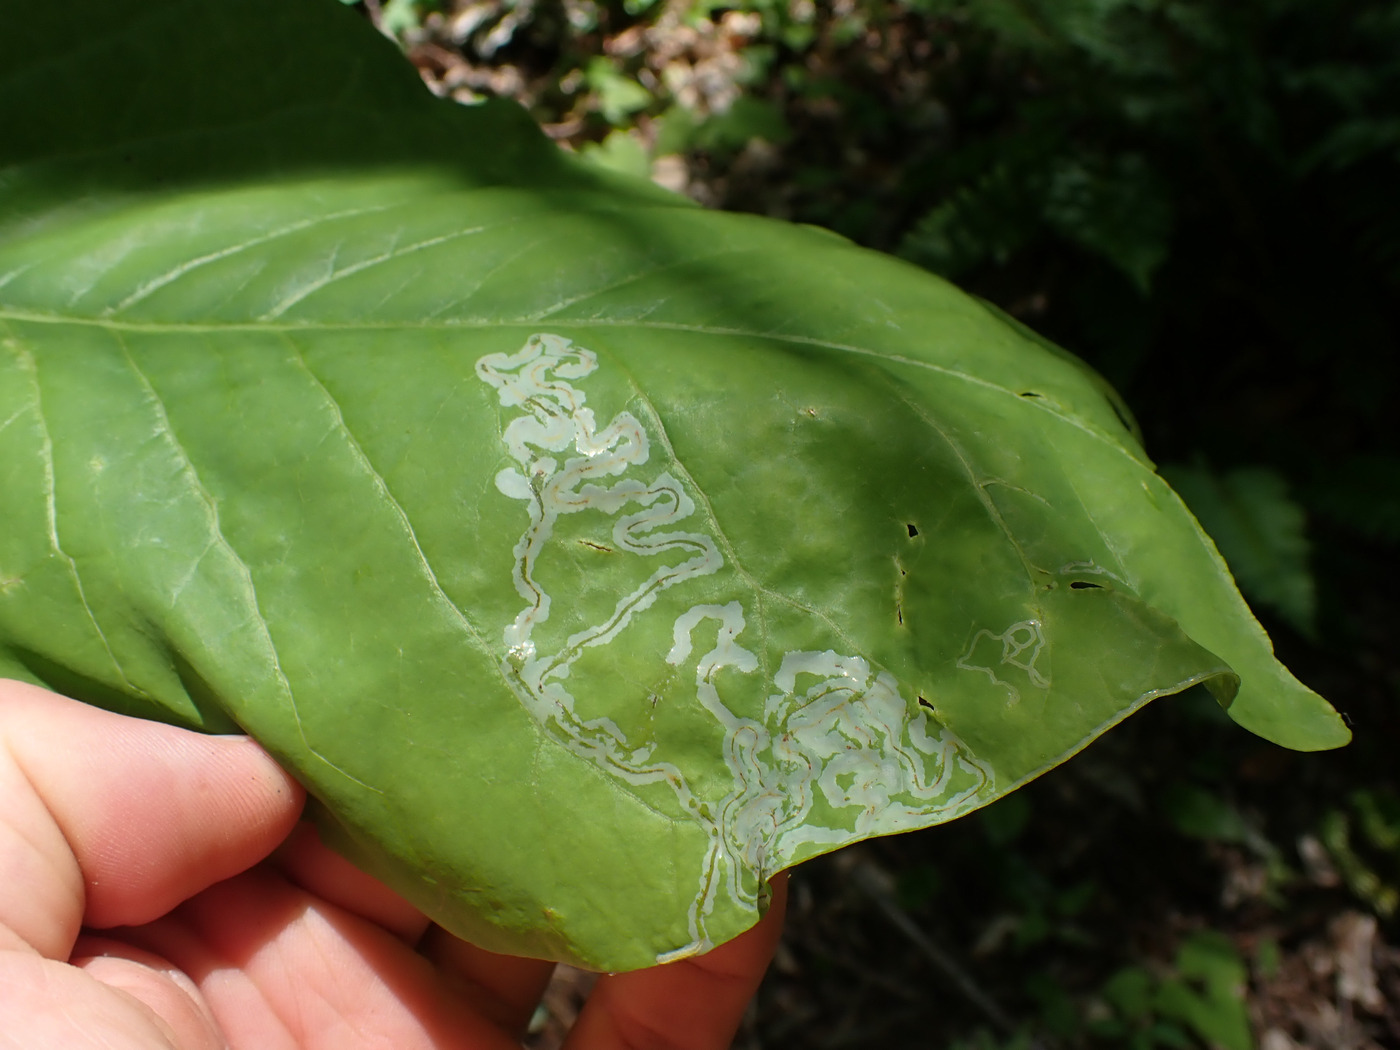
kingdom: Animalia
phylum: Arthropoda
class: Insecta
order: Lepidoptera
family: Gracillariidae
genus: Phyllocnistis
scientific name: Phyllocnistis liriodendronella
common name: Tulip tree leaf miner
